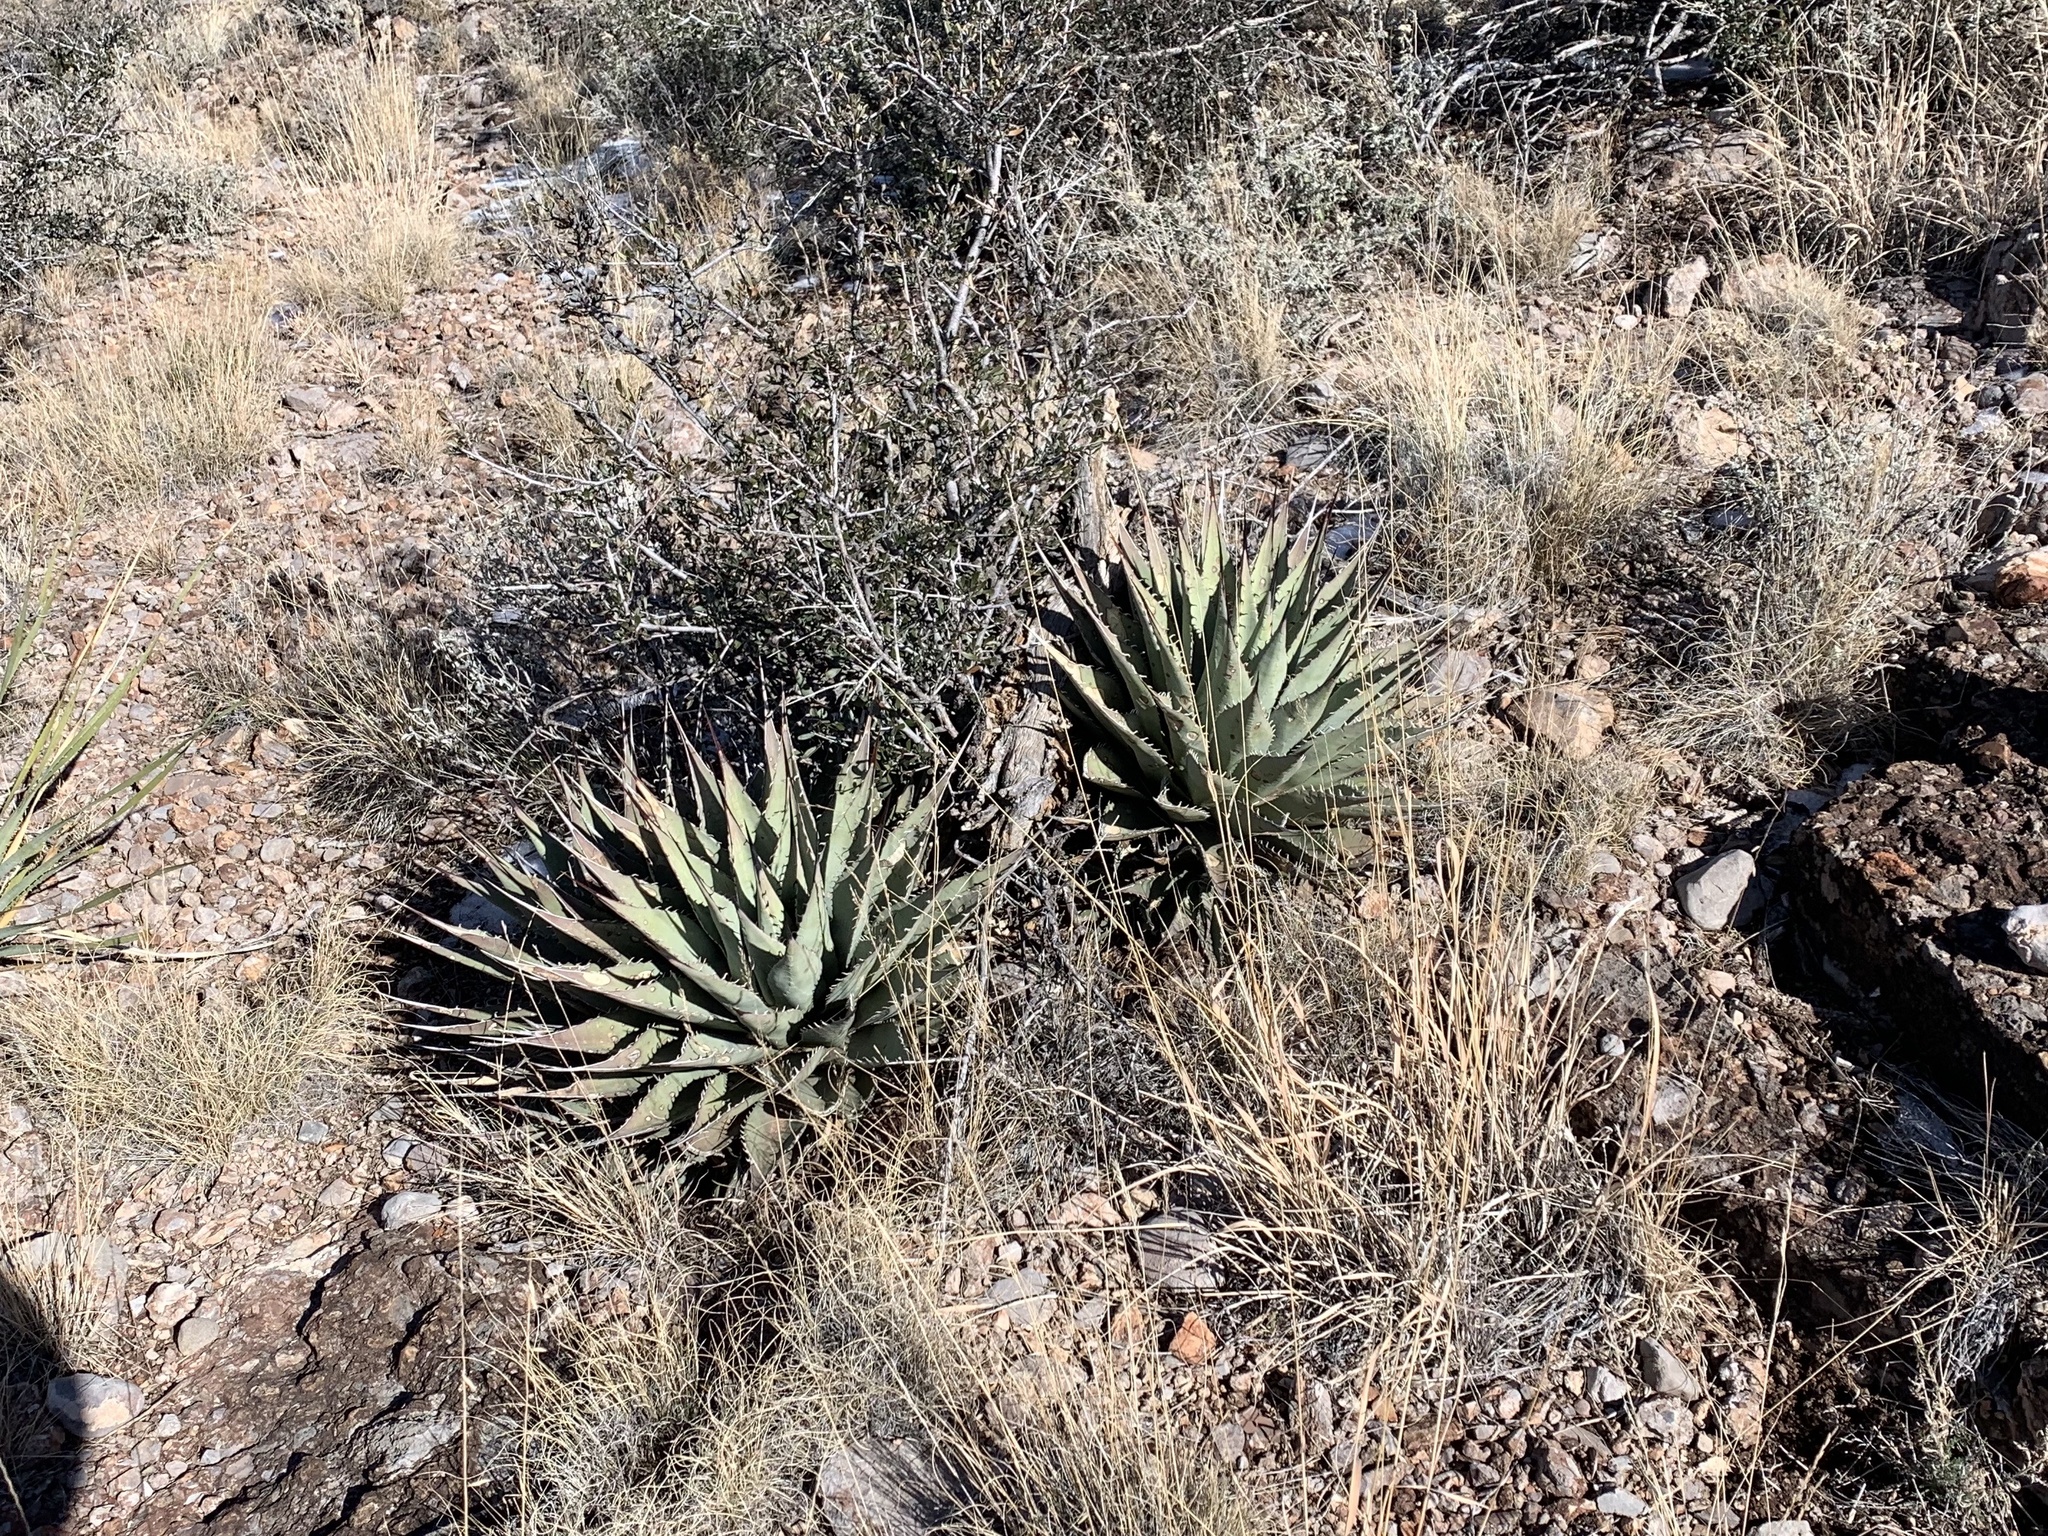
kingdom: Plantae
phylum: Tracheophyta
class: Liliopsida
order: Asparagales
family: Asparagaceae
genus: Agave
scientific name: Agave parryi
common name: Parry's agave
